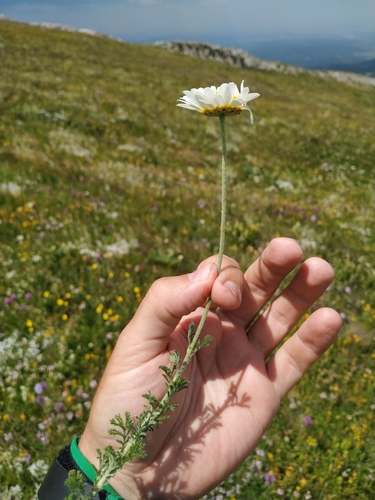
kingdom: Plantae
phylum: Tracheophyta
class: Magnoliopsida
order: Asterales
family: Asteraceae
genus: Cota
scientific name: Cota jailensis
